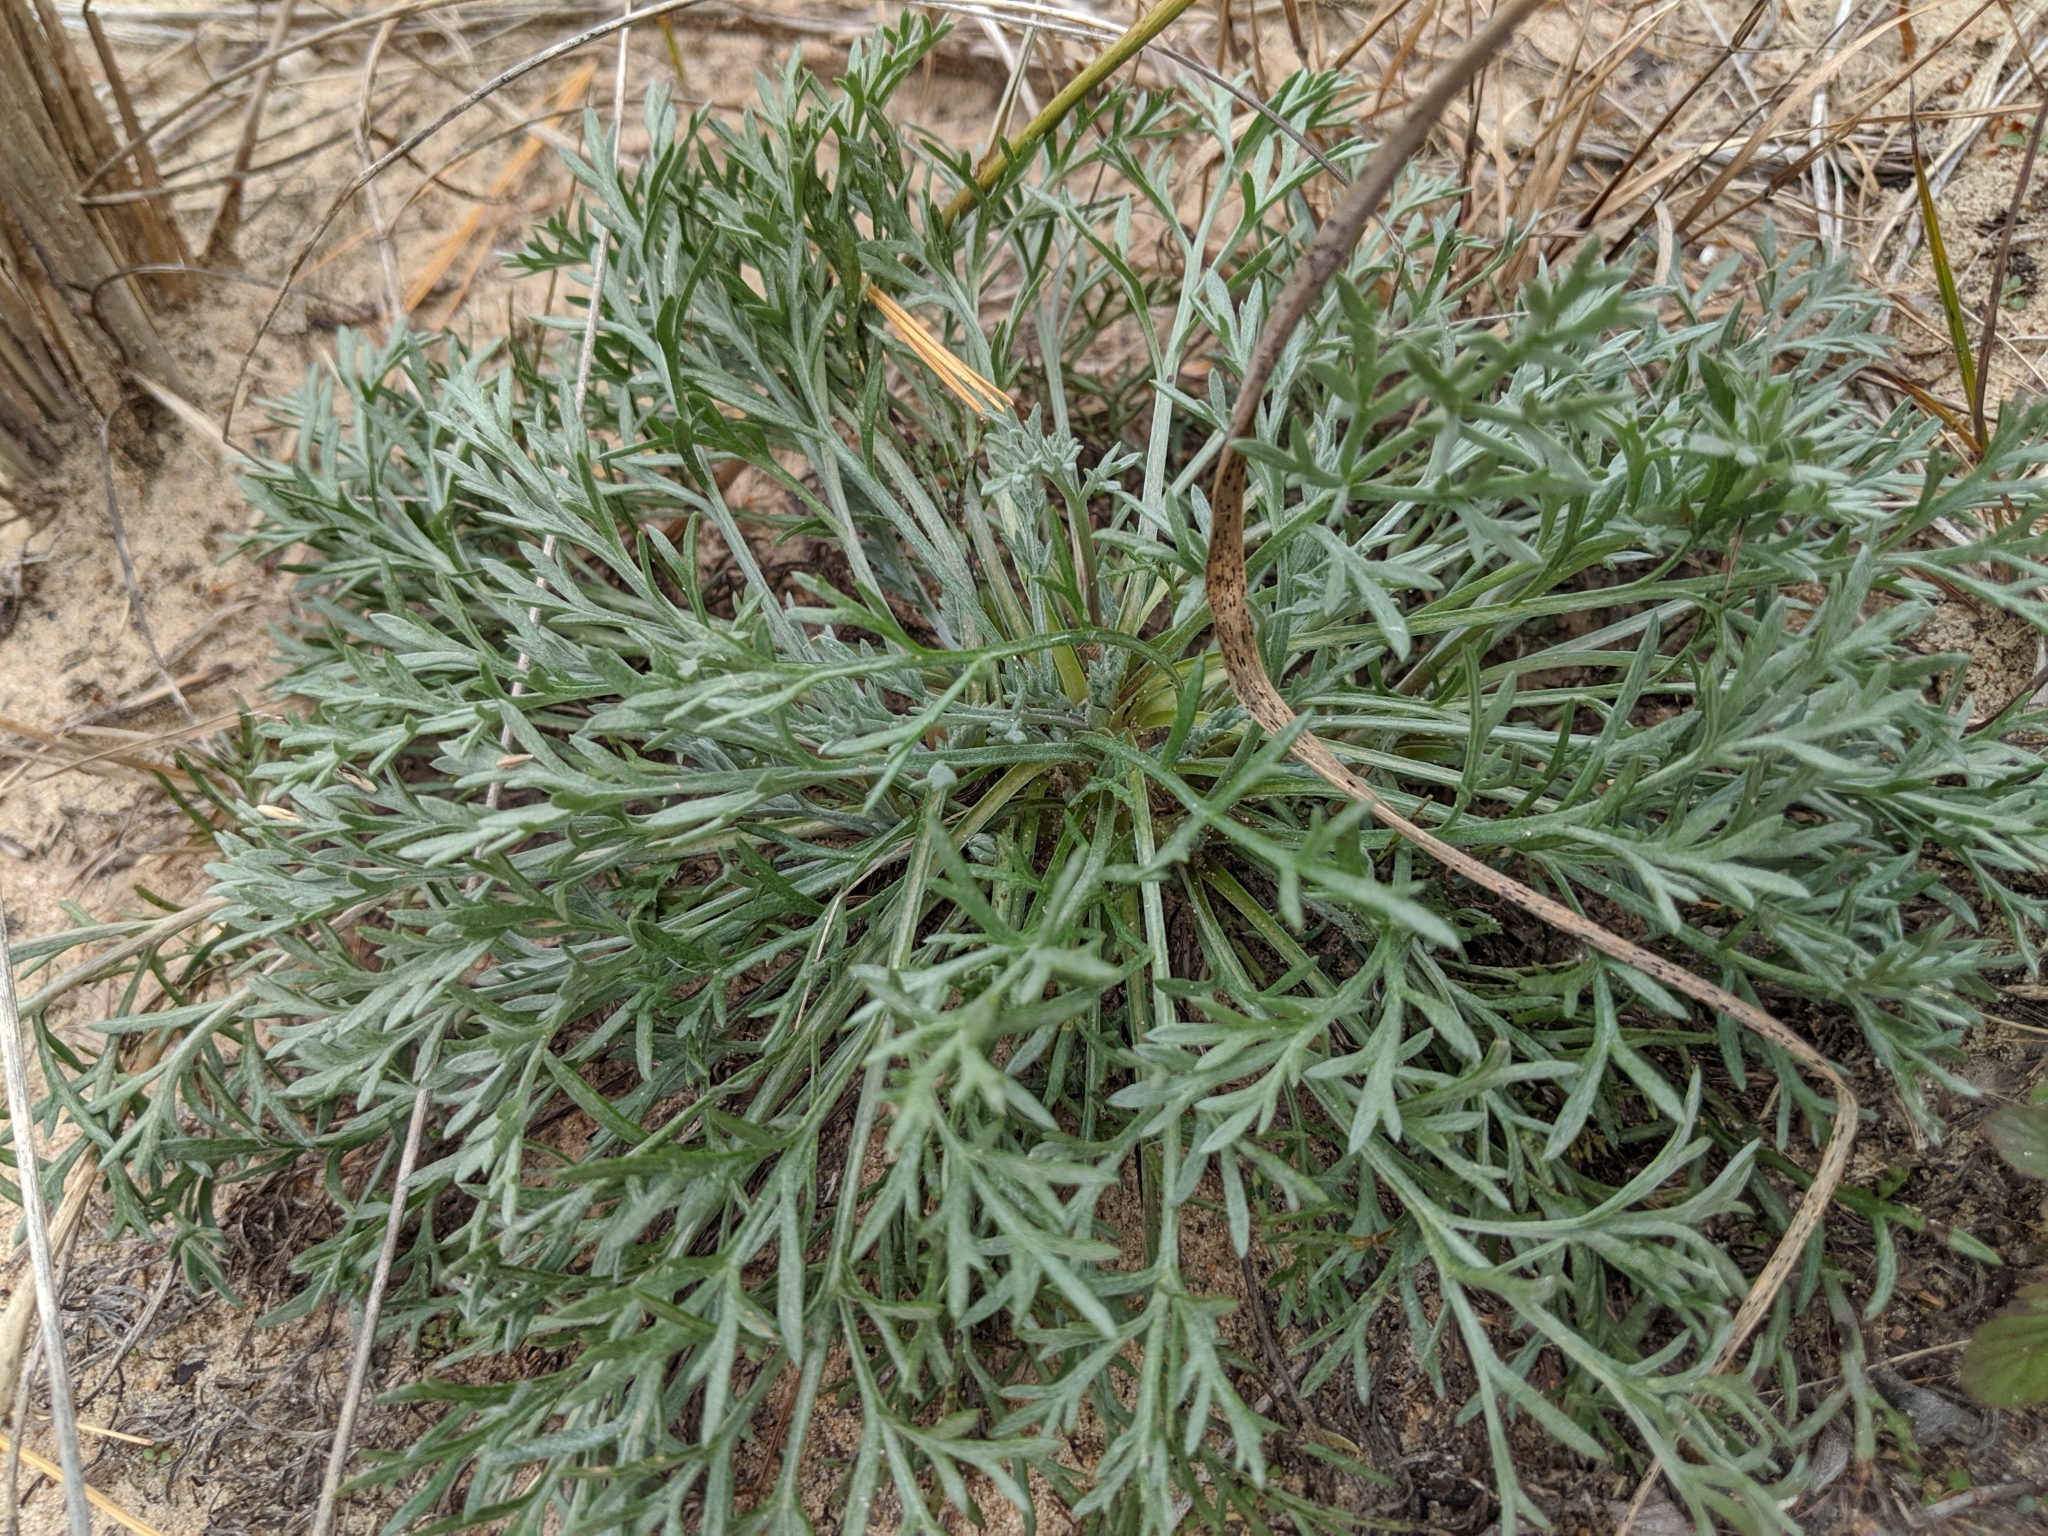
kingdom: Plantae
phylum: Tracheophyta
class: Magnoliopsida
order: Asterales
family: Asteraceae
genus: Artemisia
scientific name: Artemisia campestris
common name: Field wormwood
